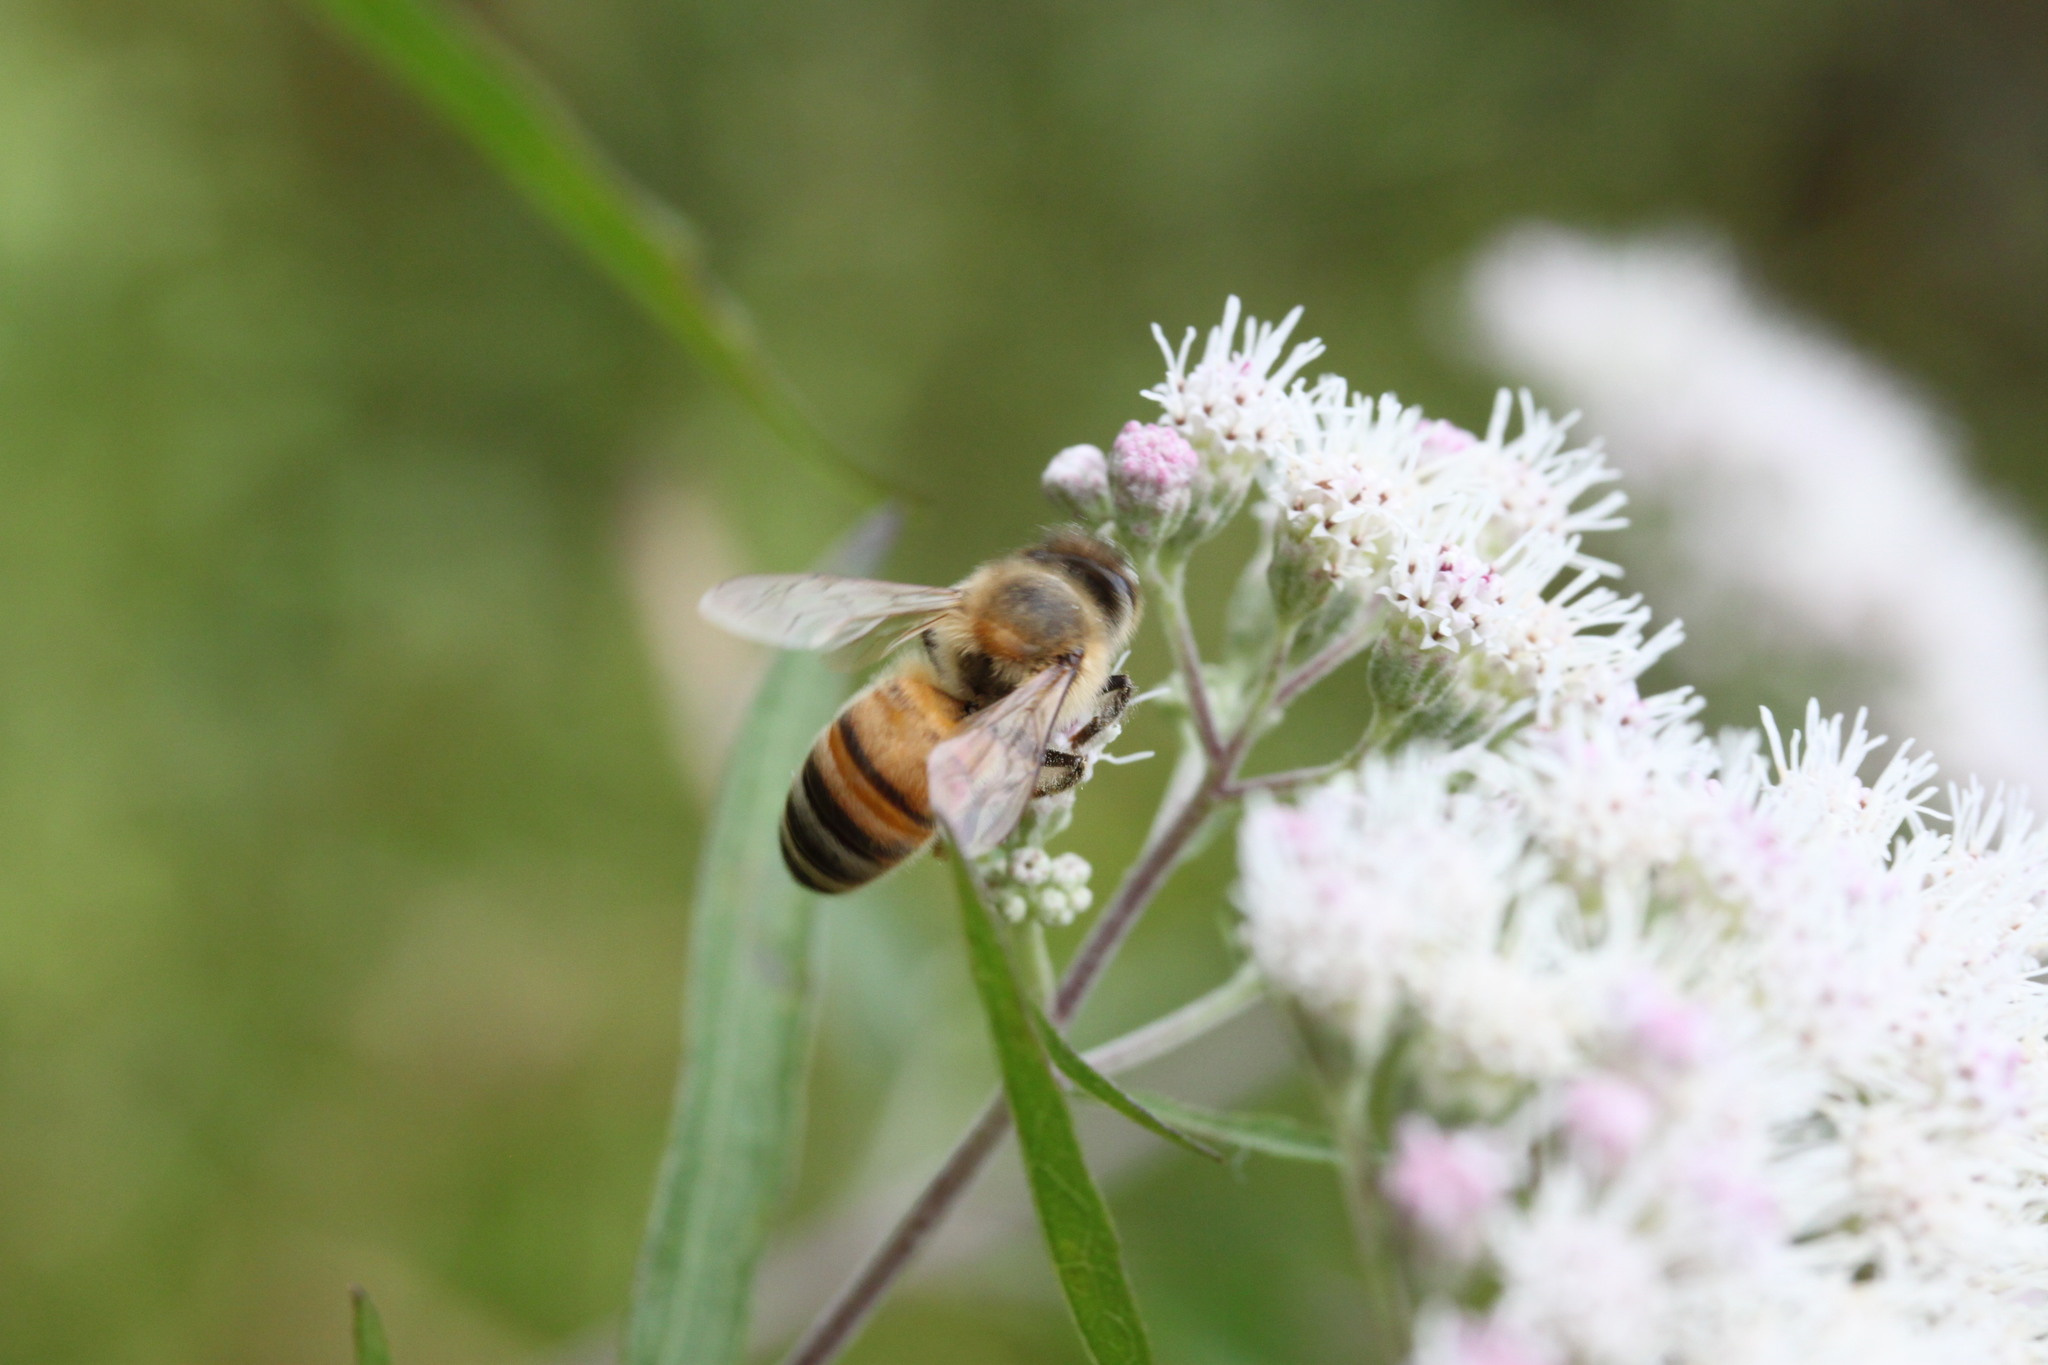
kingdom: Animalia
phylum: Arthropoda
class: Insecta
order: Hymenoptera
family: Apidae
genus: Apis
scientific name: Apis mellifera
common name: Honey bee
